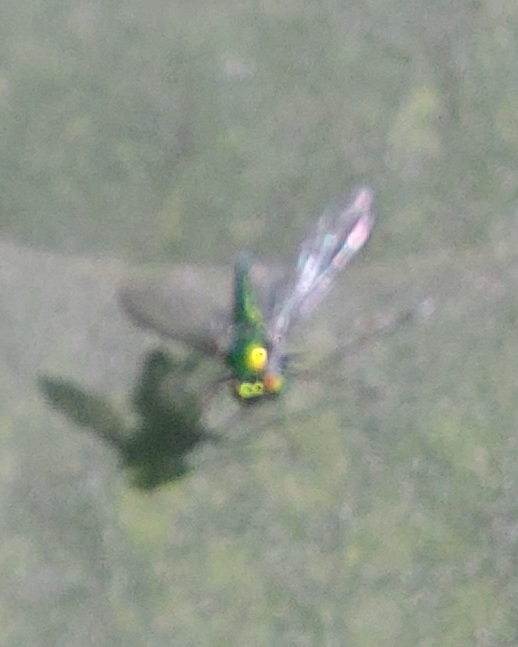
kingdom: Animalia
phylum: Arthropoda
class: Insecta
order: Diptera
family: Dolichopodidae
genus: Chrysosoma
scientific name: Chrysosoma leucopogon
